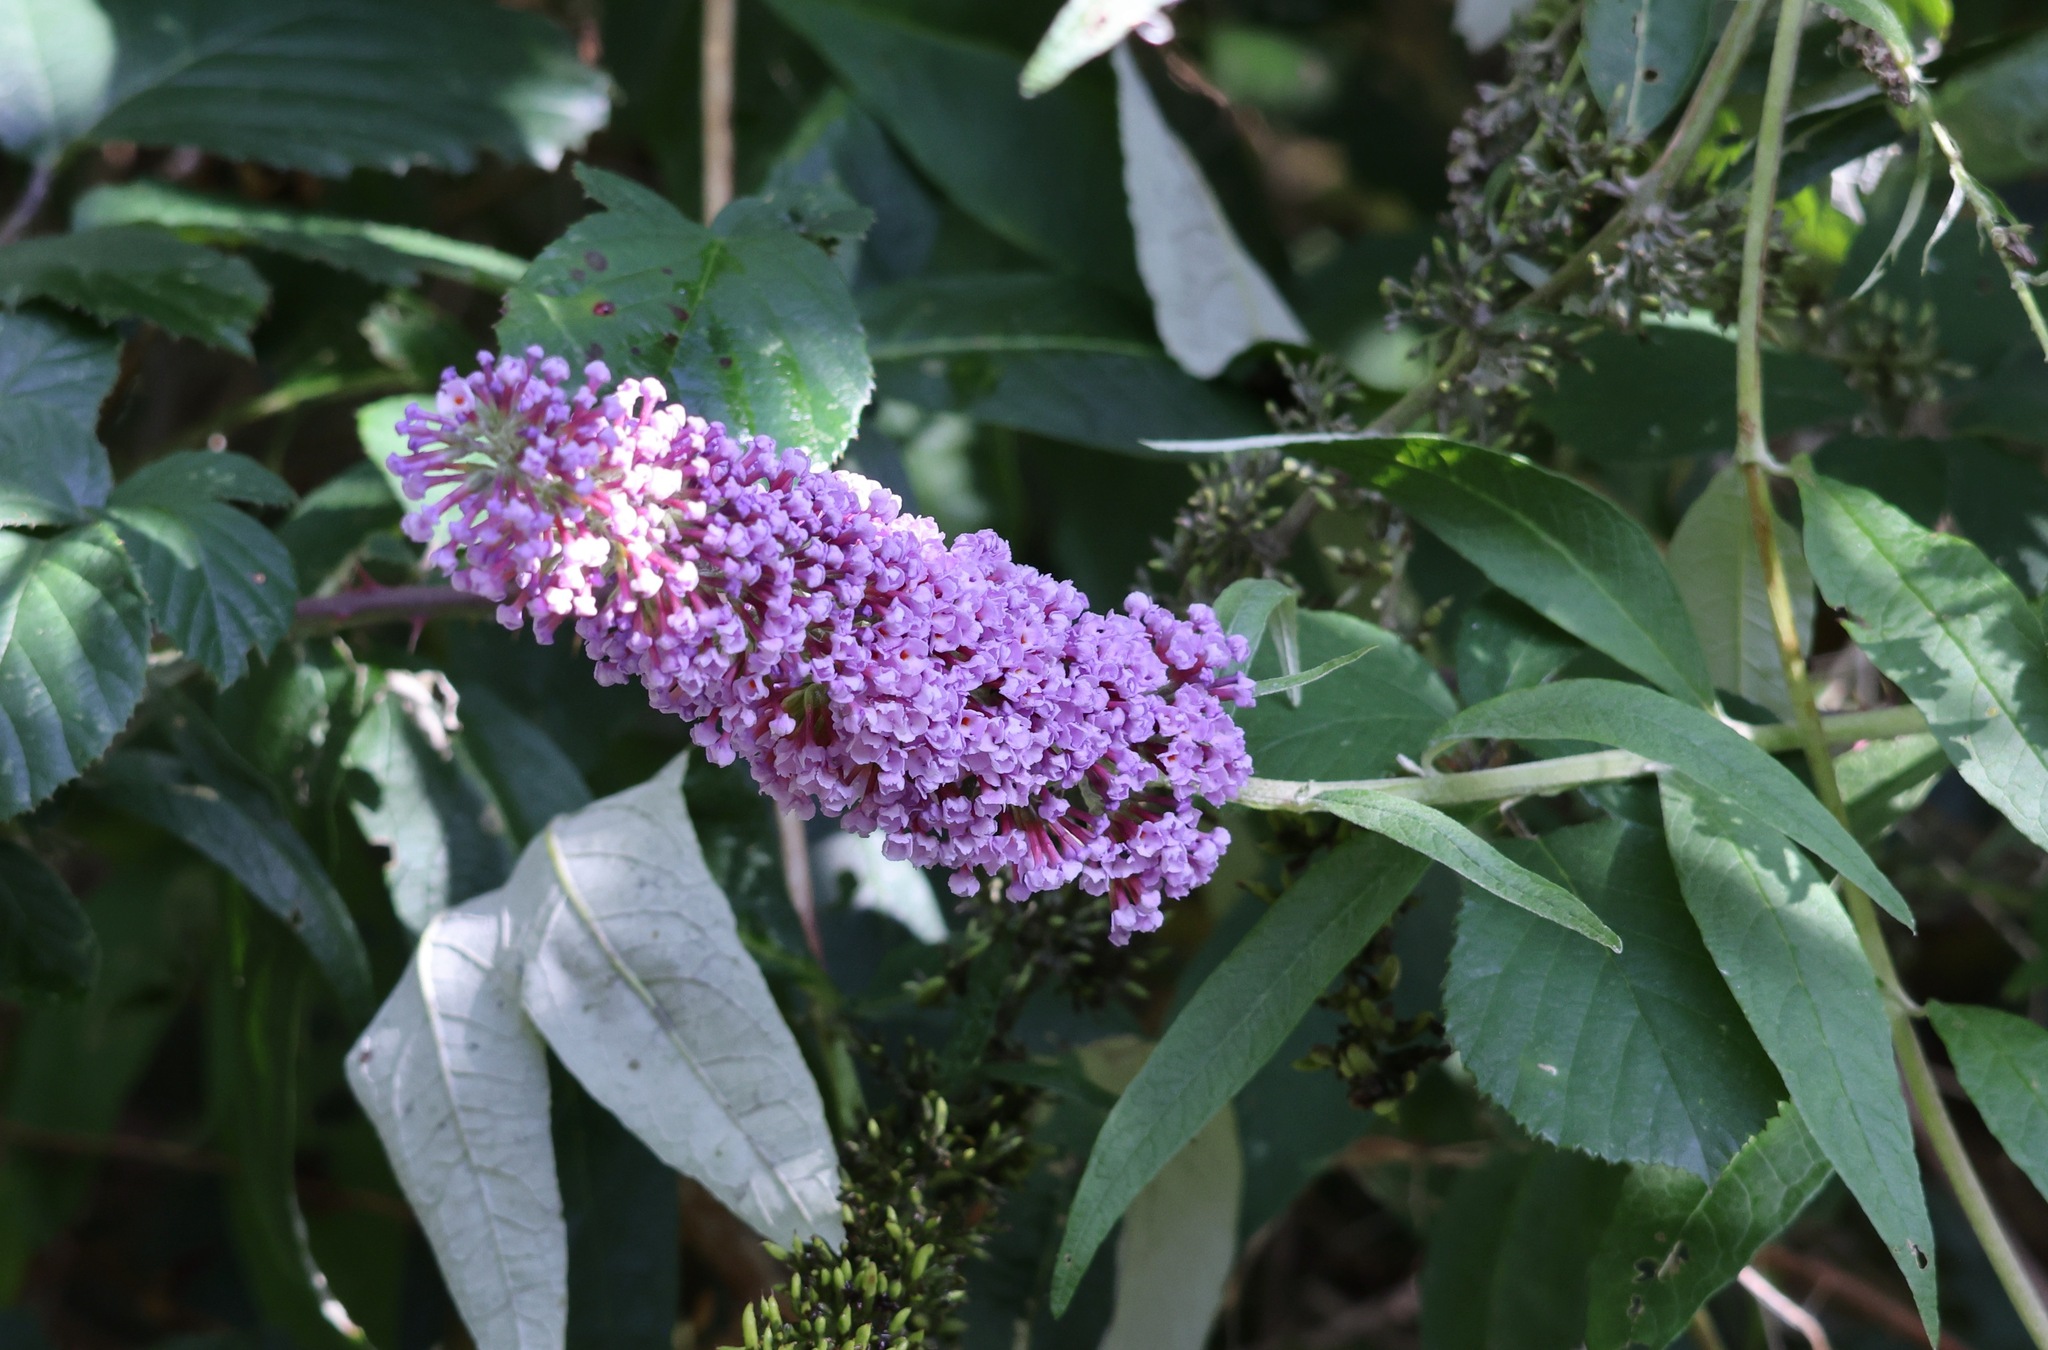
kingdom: Plantae
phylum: Tracheophyta
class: Magnoliopsida
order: Lamiales
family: Scrophulariaceae
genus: Buddleja
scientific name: Buddleja davidii
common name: Butterfly-bush
